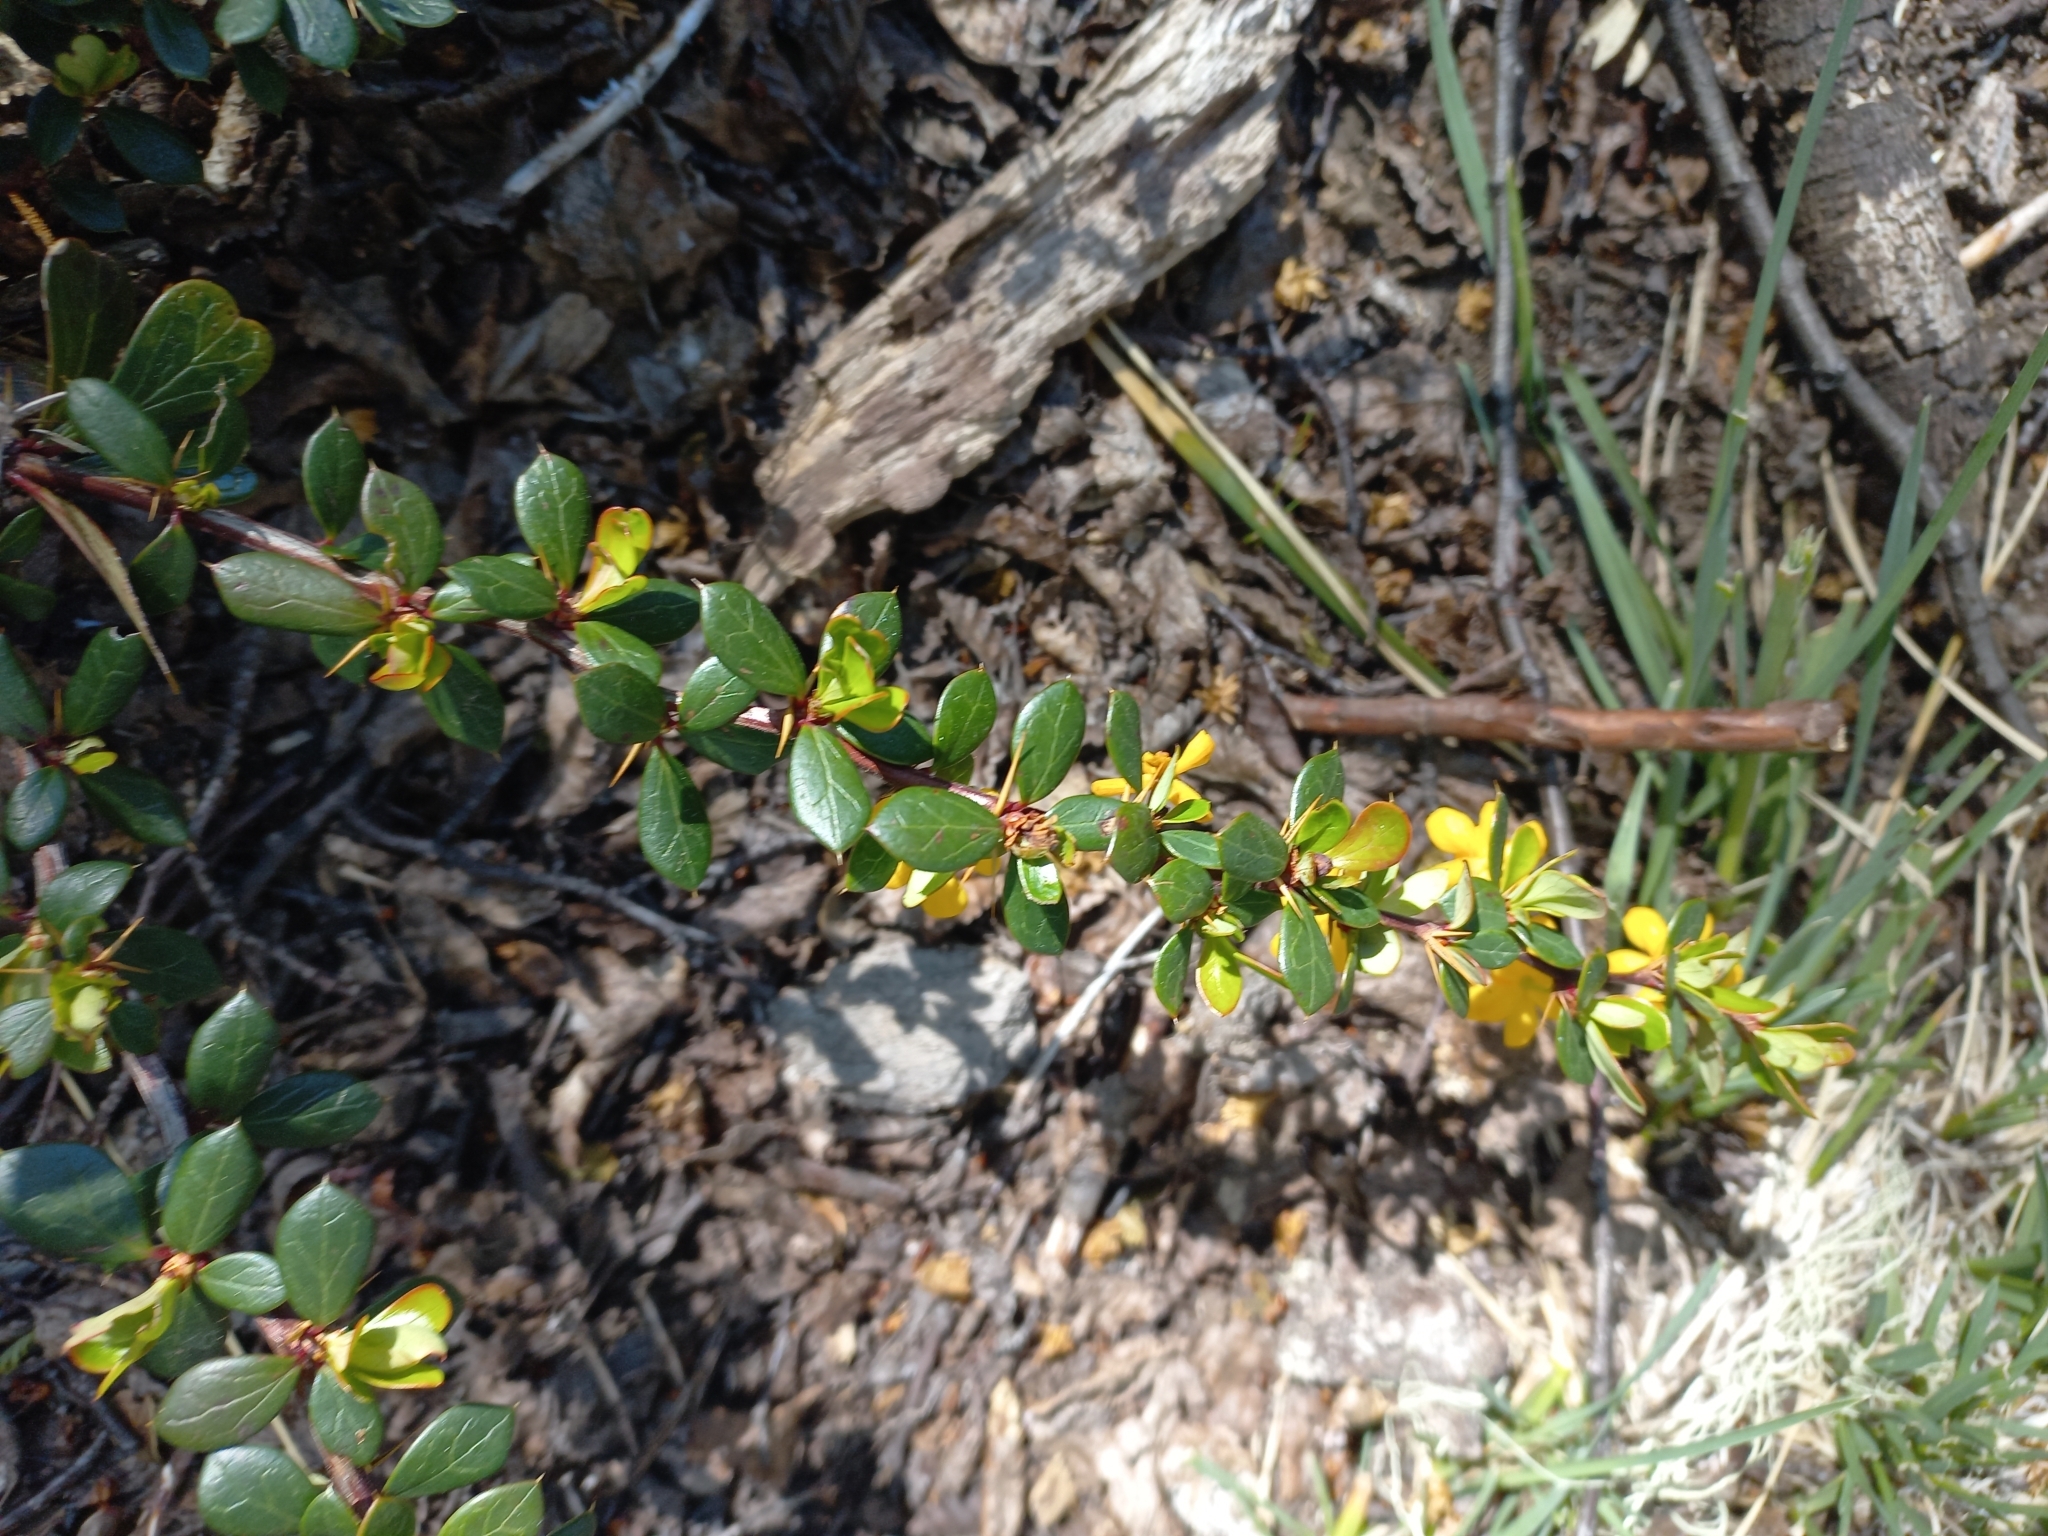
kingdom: Plantae
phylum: Tracheophyta
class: Magnoliopsida
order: Ranunculales
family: Berberidaceae
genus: Berberis
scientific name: Berberis microphylla
